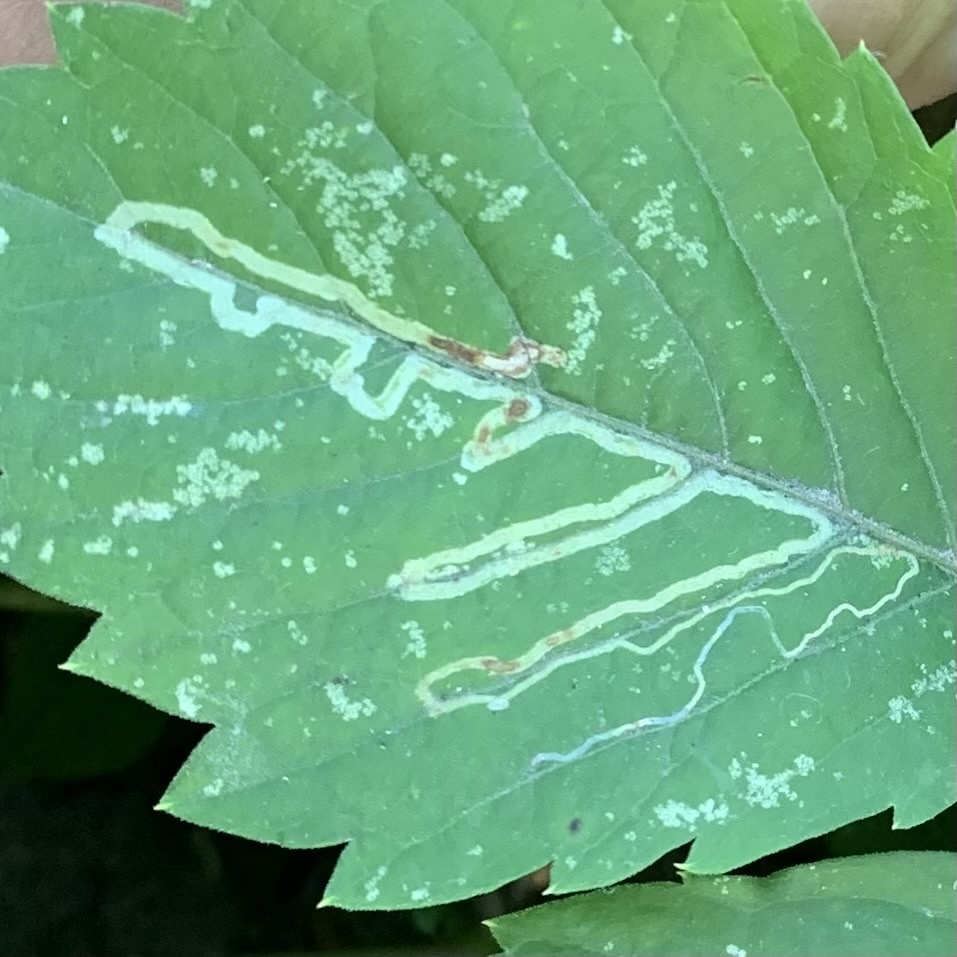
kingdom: Animalia
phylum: Arthropoda
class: Insecta
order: Lepidoptera
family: Gracillariidae
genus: Phyllocnistis
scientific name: Phyllocnistis vitifoliella
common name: Grape leaf-miner moth
